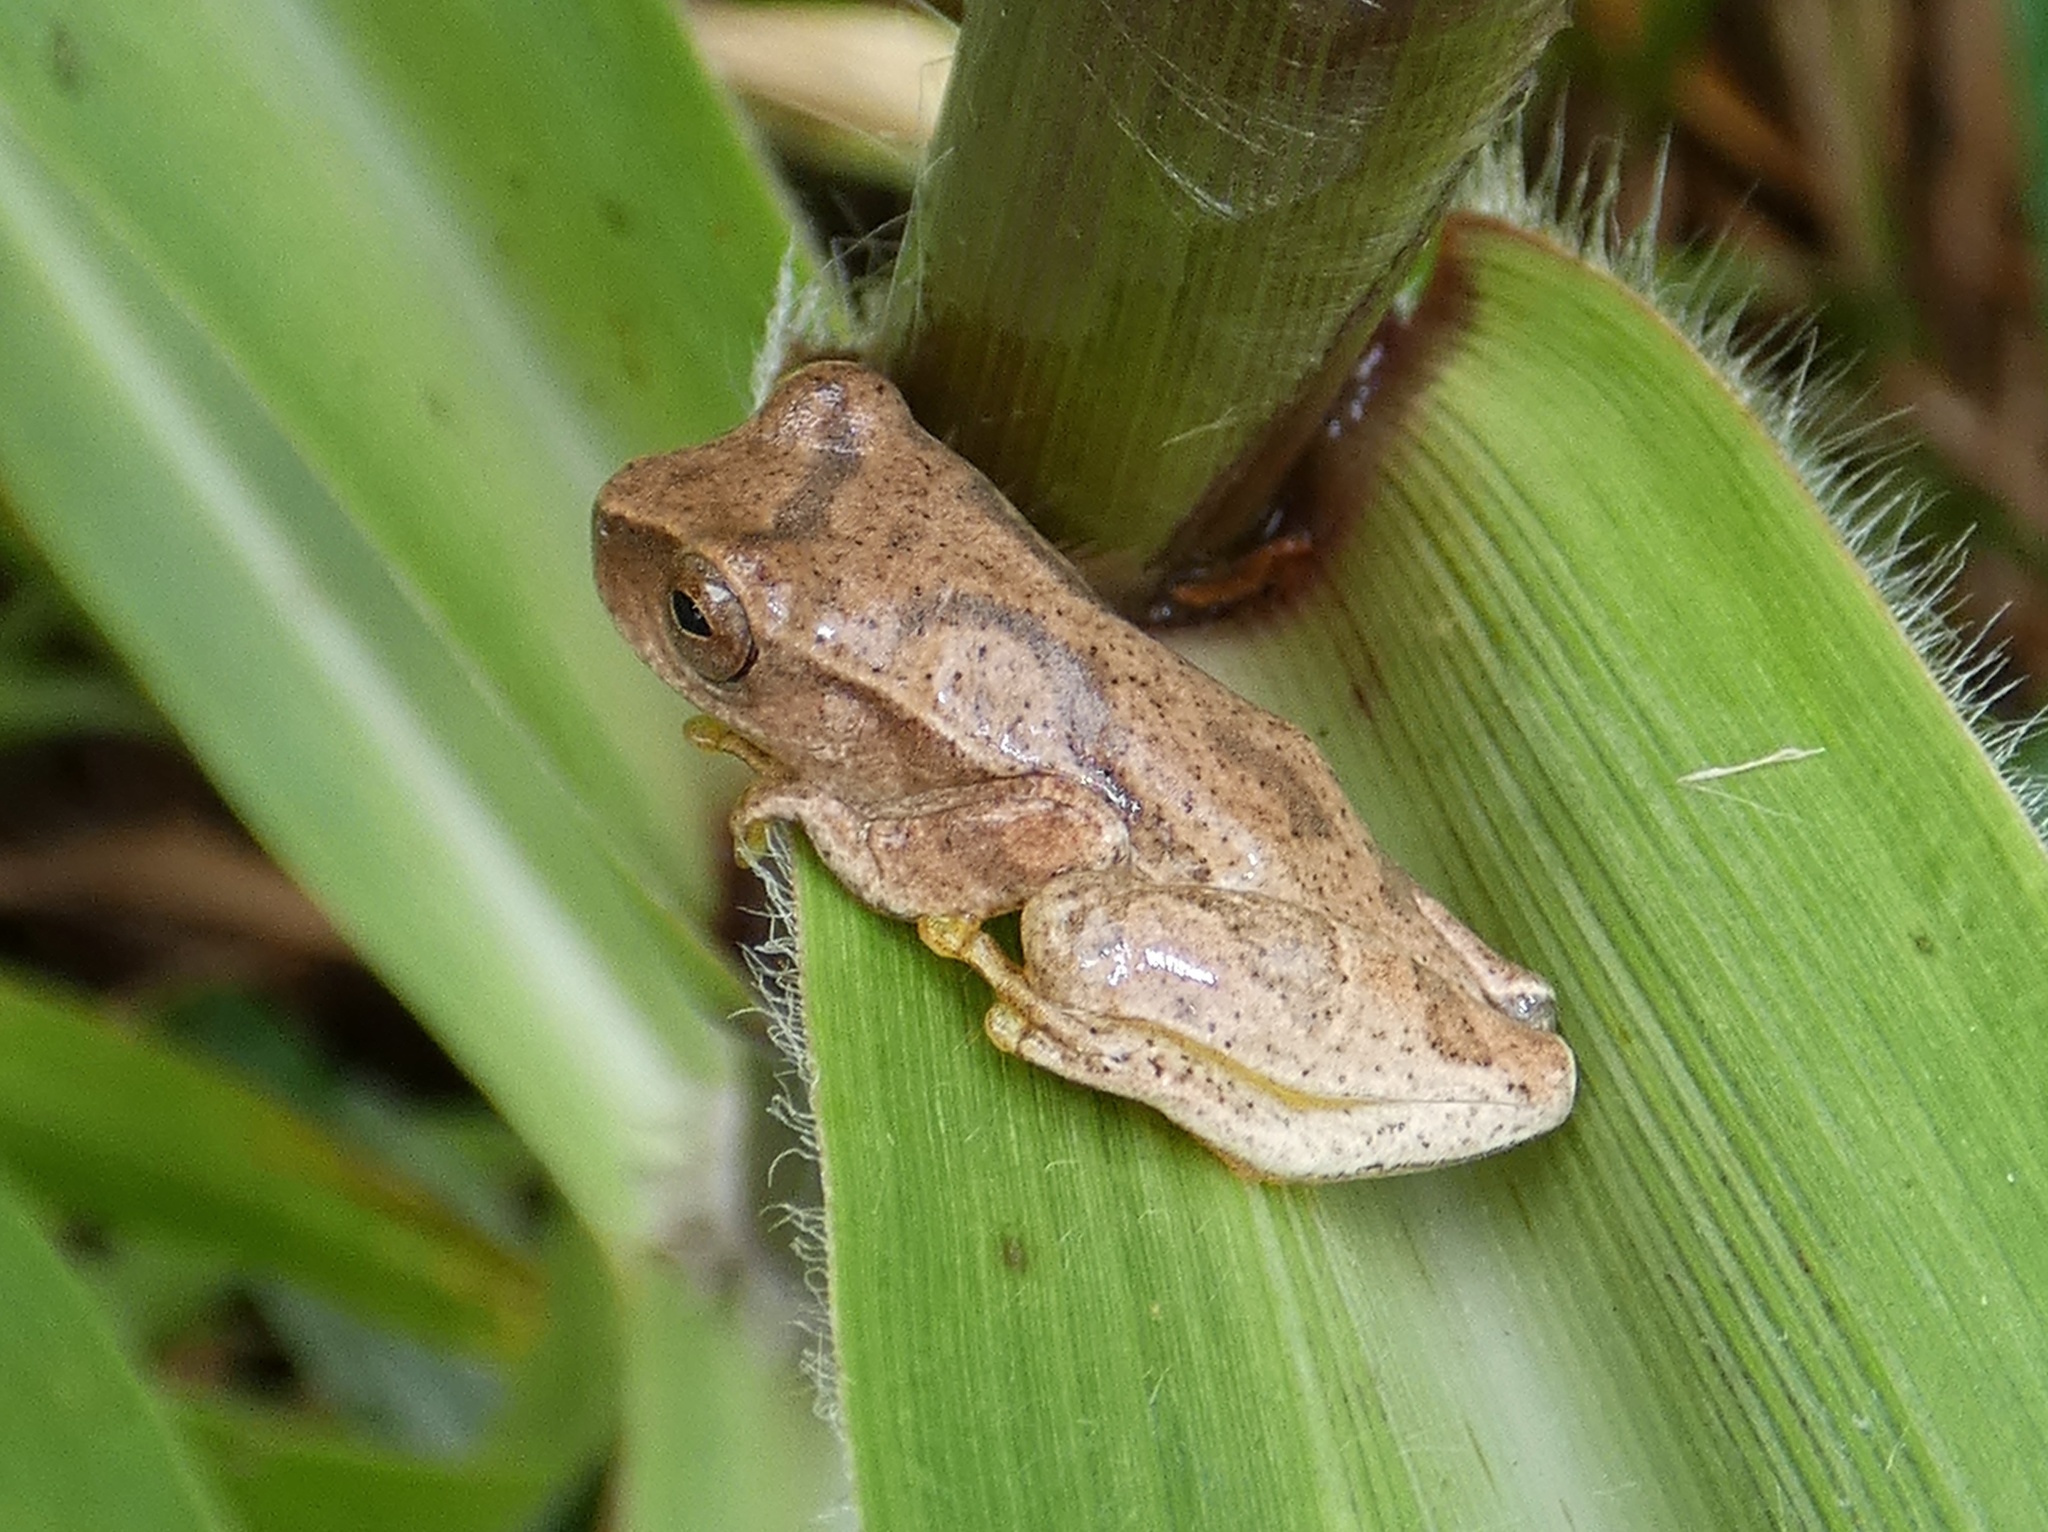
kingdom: Animalia
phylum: Chordata
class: Amphibia
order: Anura
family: Hylidae
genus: Dendropsophus
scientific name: Dendropsophus phlebodes
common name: San carlos treefrog
